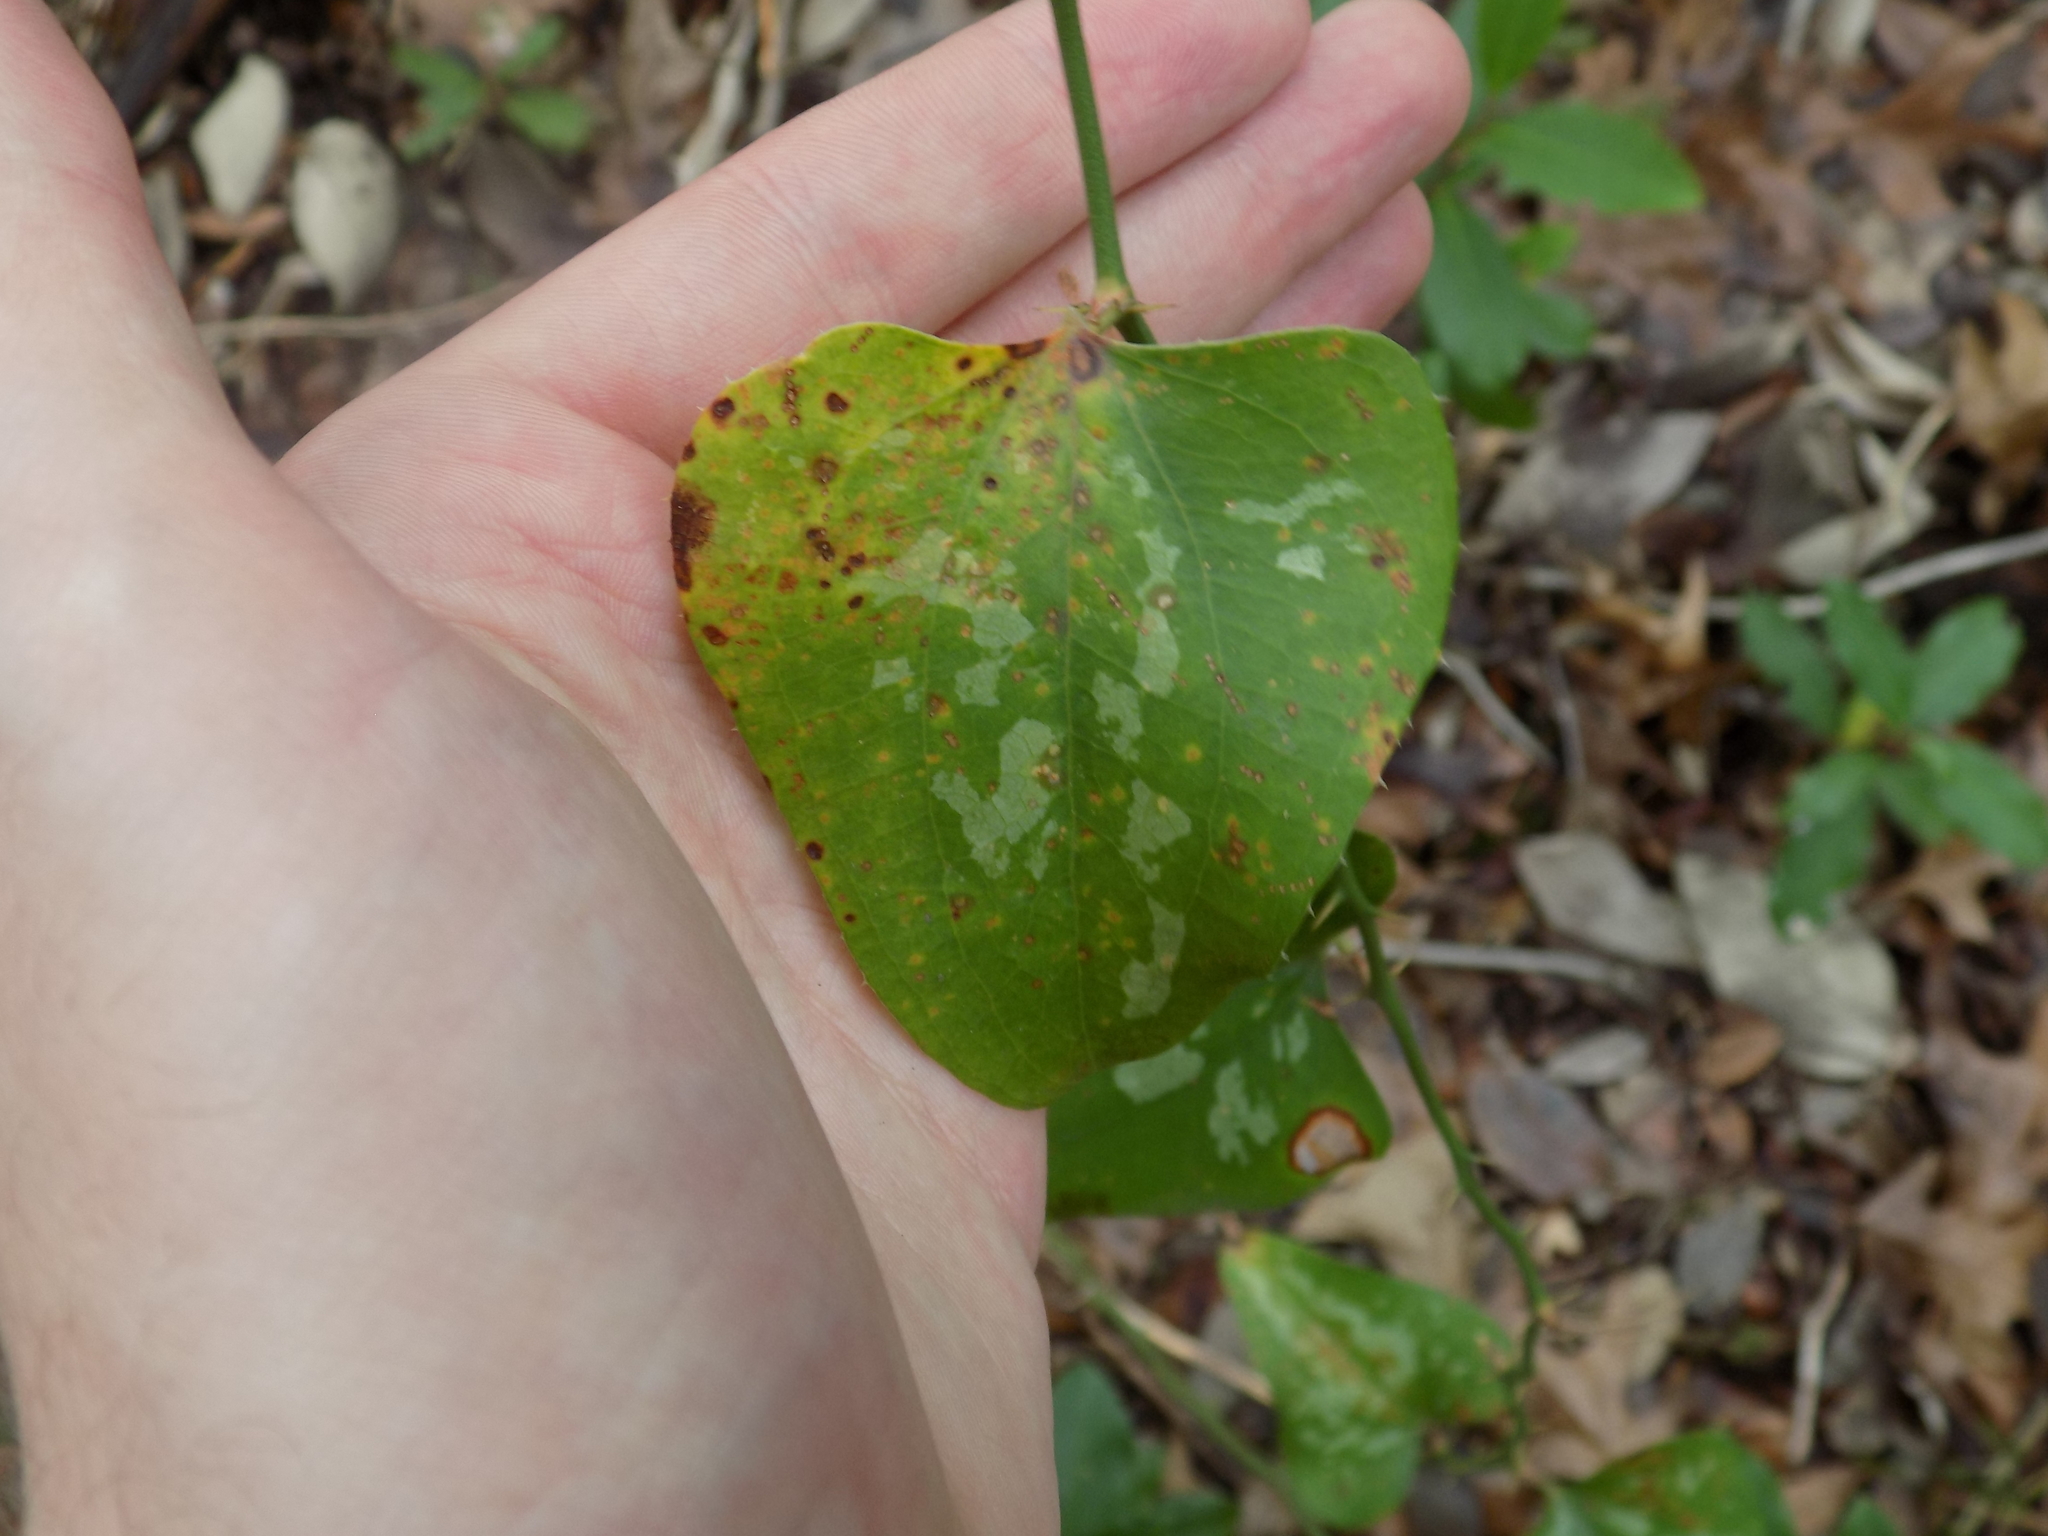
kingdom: Plantae
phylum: Tracheophyta
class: Liliopsida
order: Liliales
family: Smilacaceae
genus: Smilax
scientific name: Smilax bona-nox
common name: Catbrier
